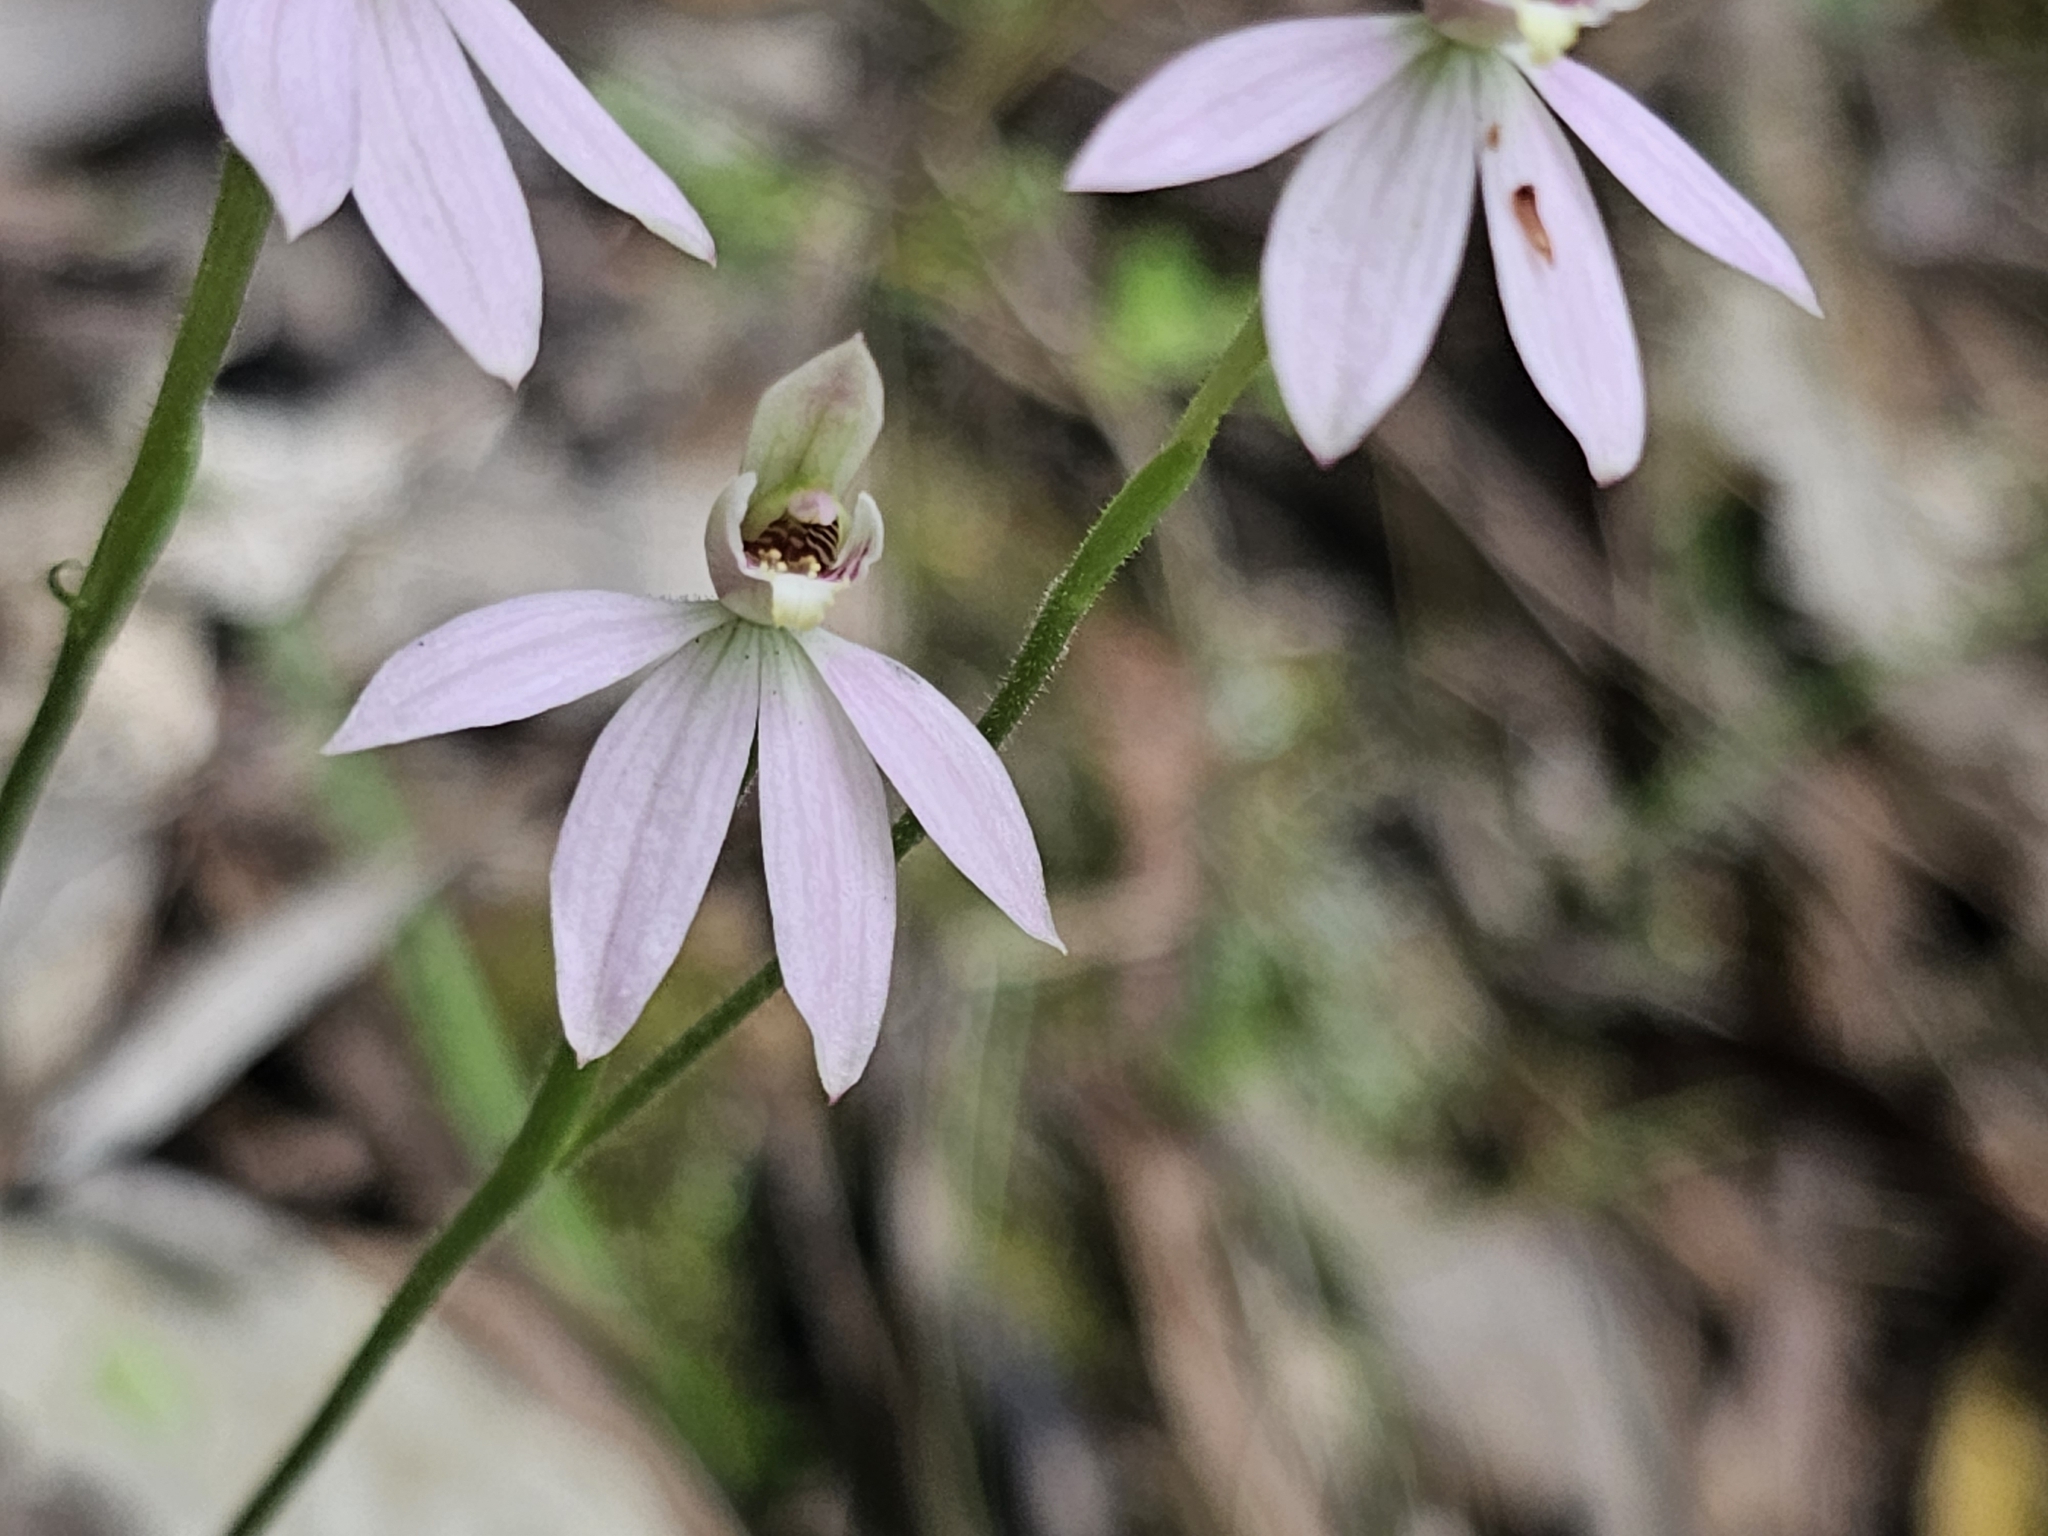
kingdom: Plantae
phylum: Tracheophyta
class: Liliopsida
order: Asparagales
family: Orchidaceae
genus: Caladenia
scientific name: Caladenia variegata
